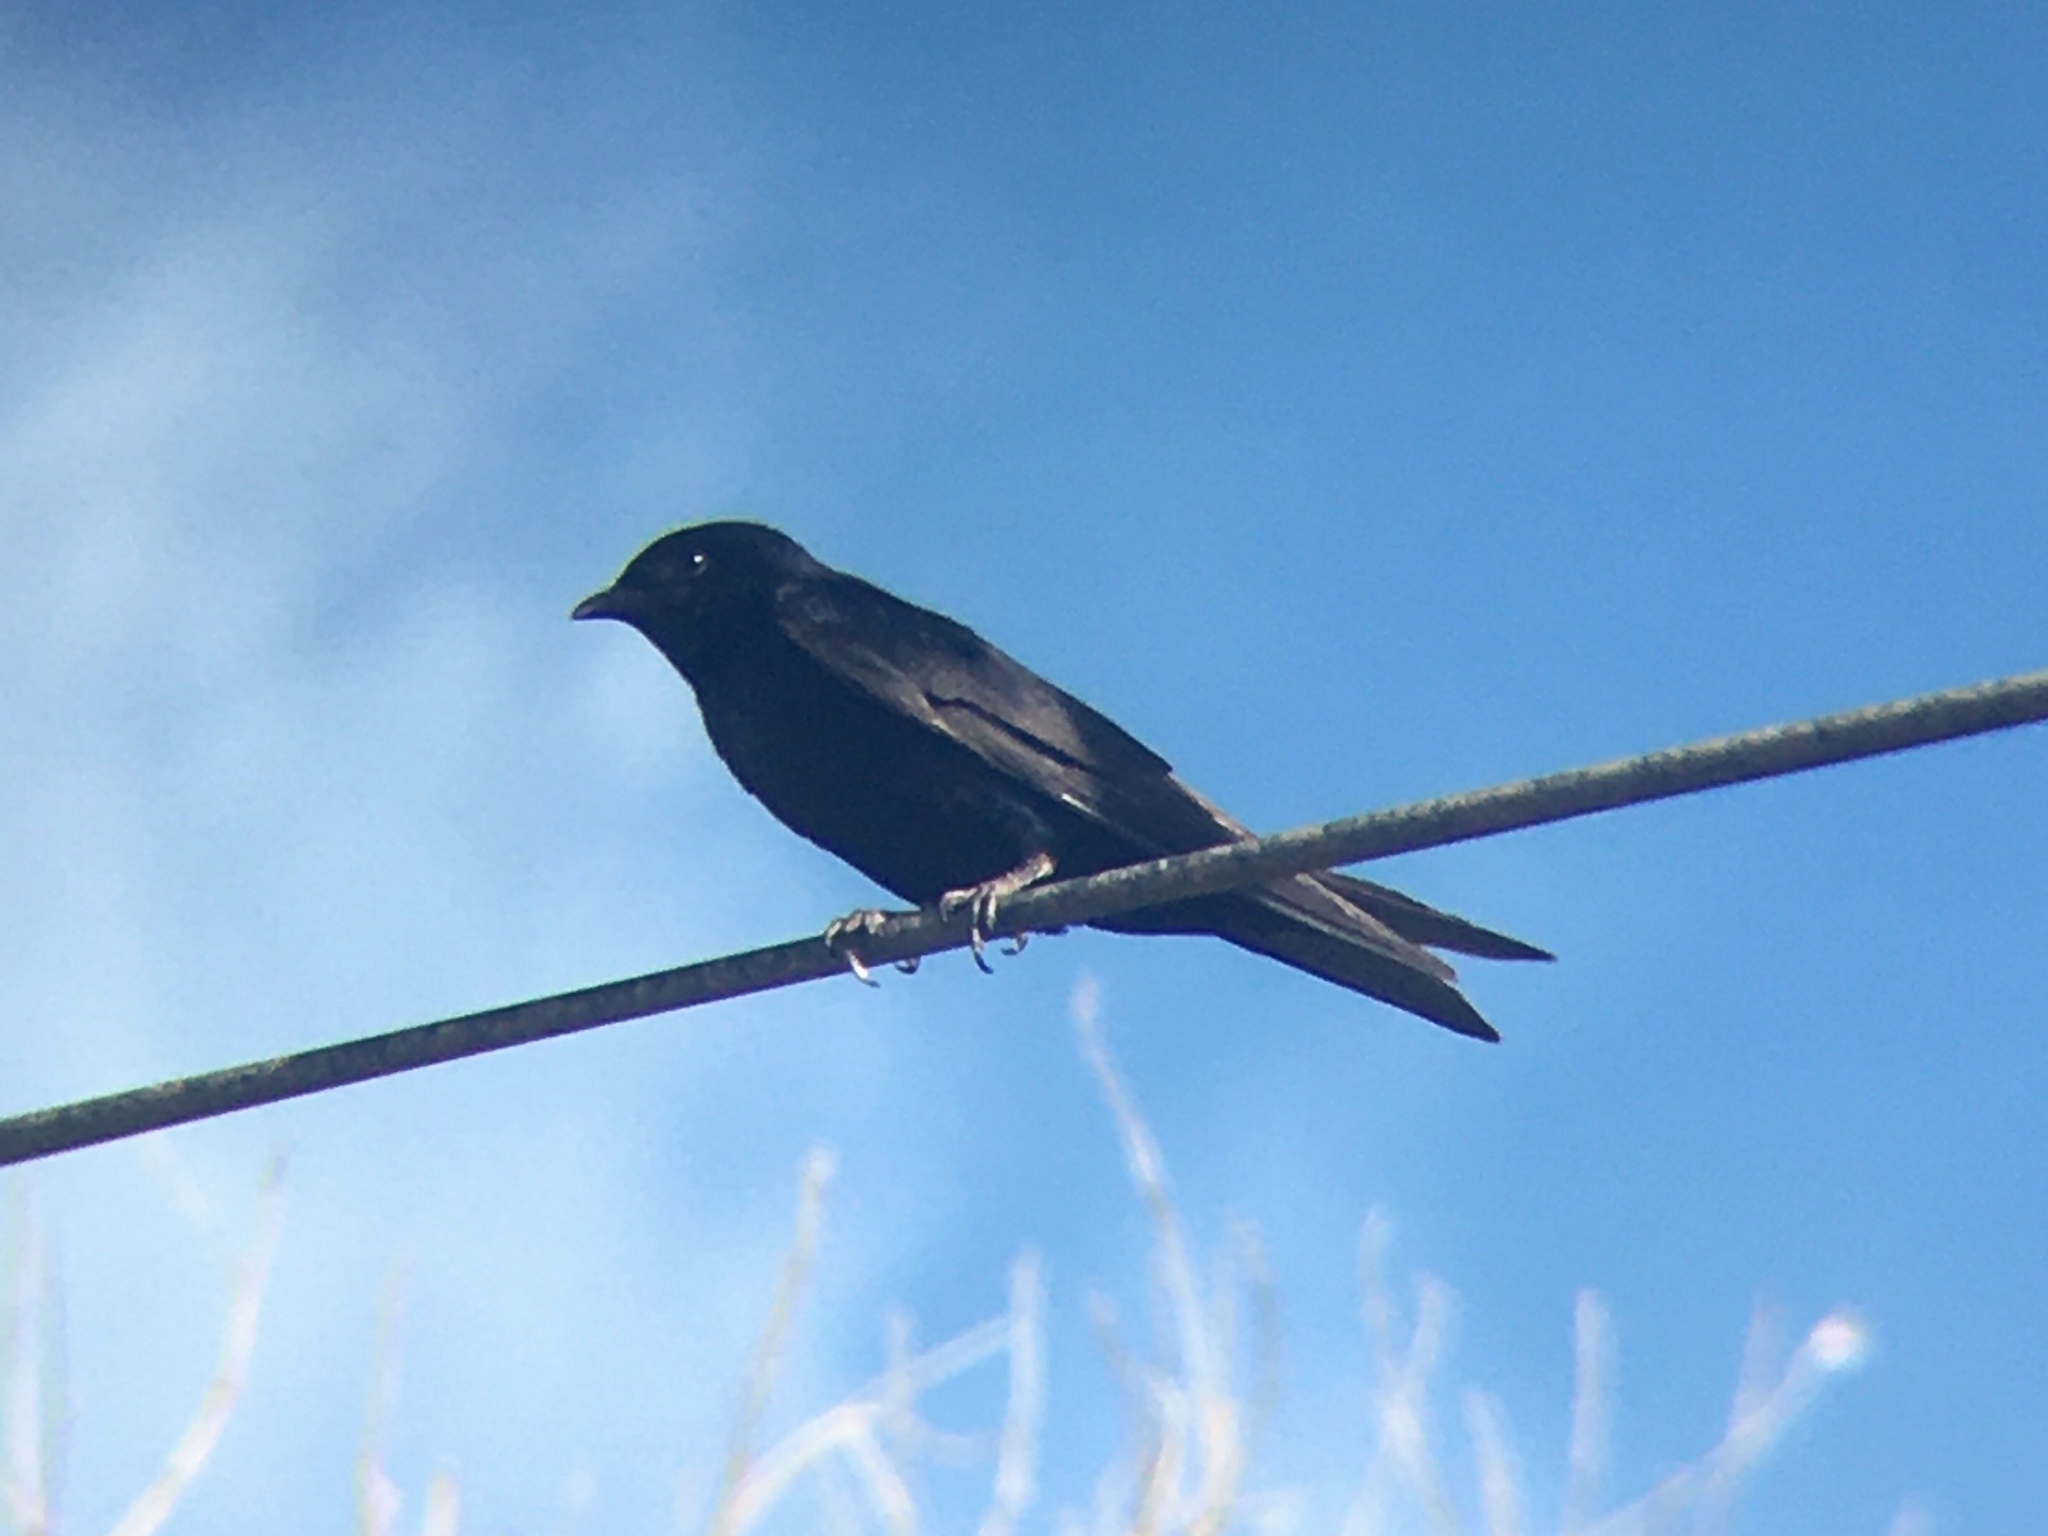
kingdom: Animalia
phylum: Chordata
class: Aves
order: Passeriformes
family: Hirundinidae
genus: Progne
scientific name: Progne elegans
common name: Southern martin
